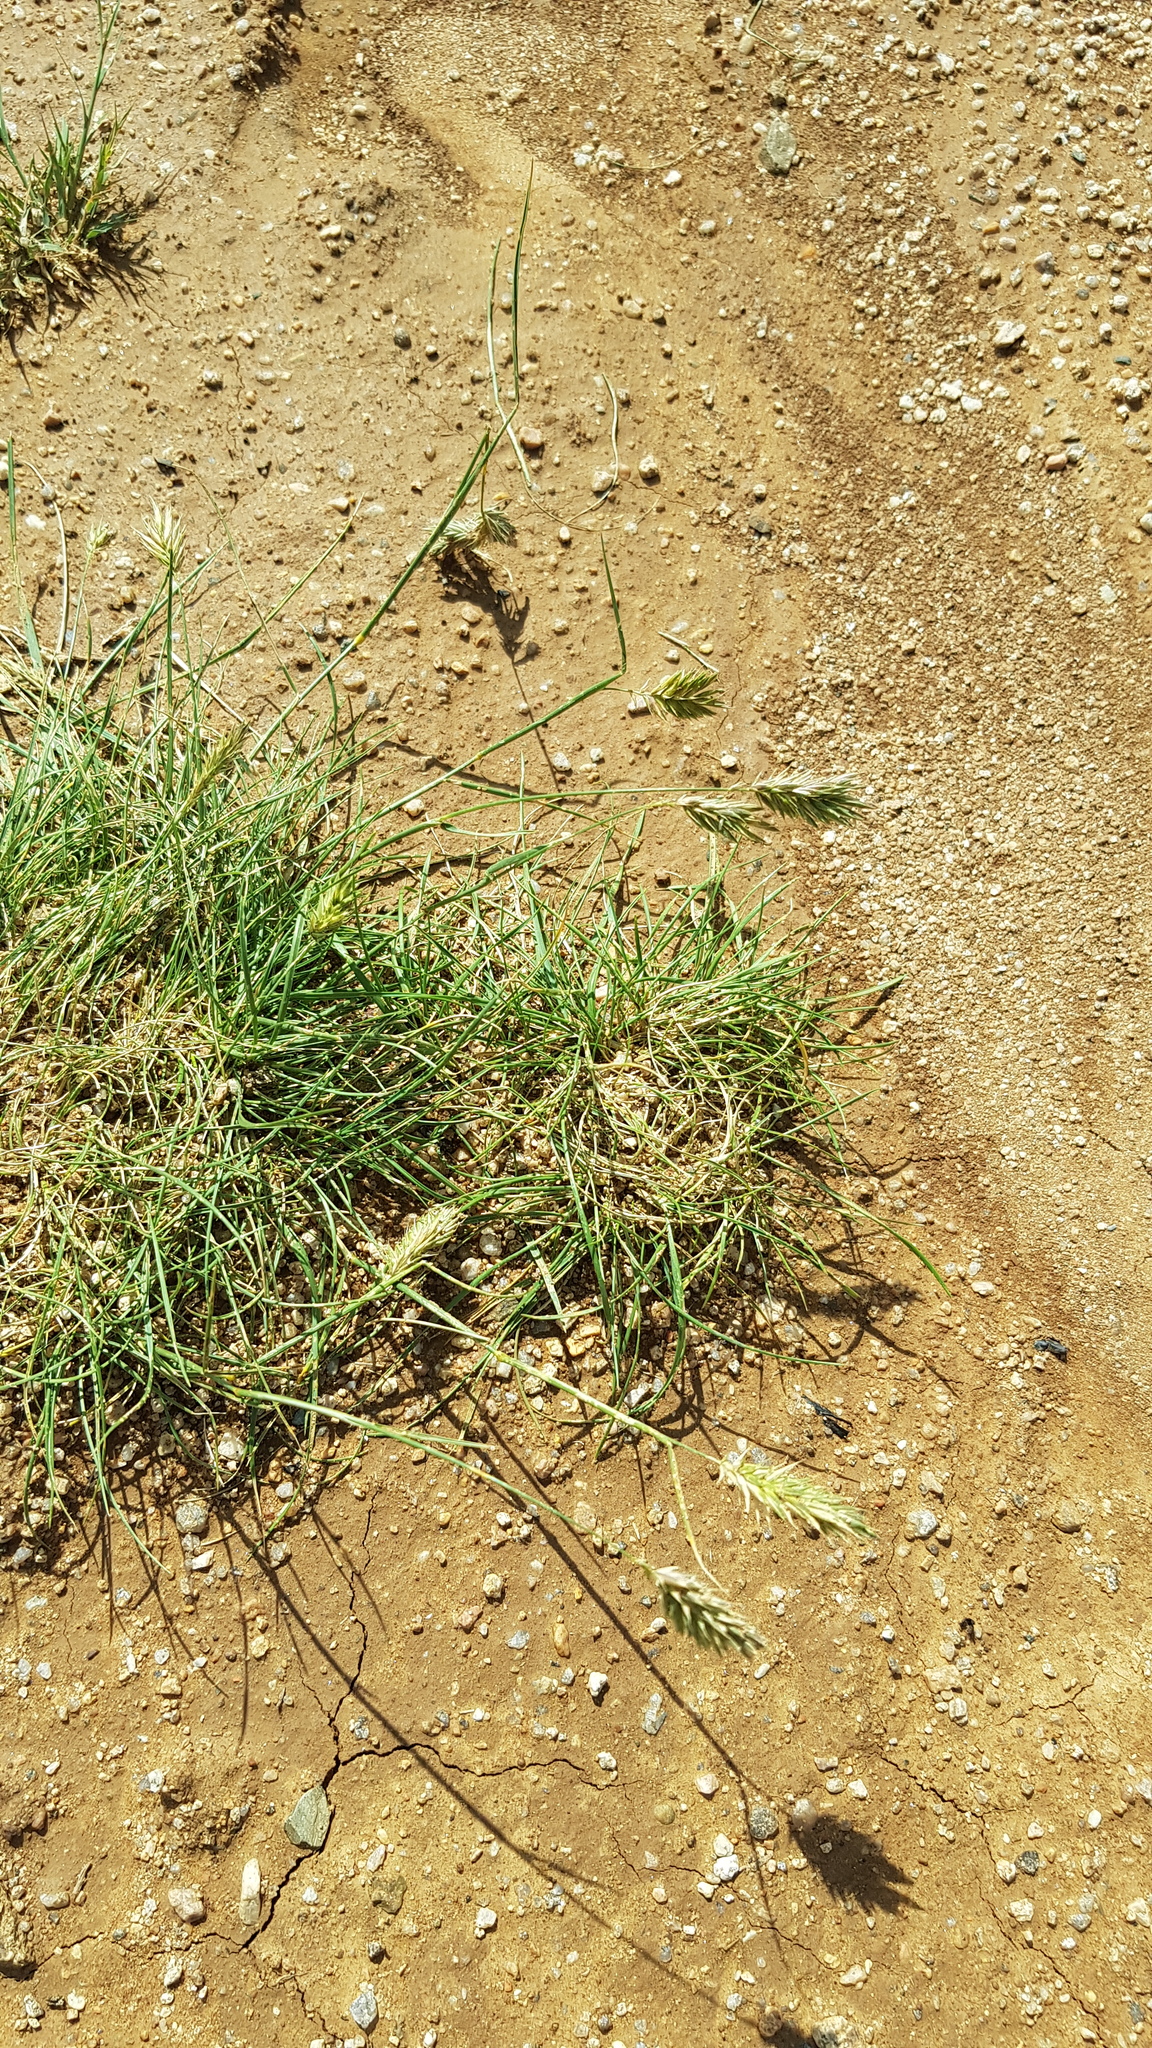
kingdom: Plantae
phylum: Tracheophyta
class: Liliopsida
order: Poales
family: Poaceae
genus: Agropyron
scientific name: Agropyron cristatum
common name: Crested wheatgrass
